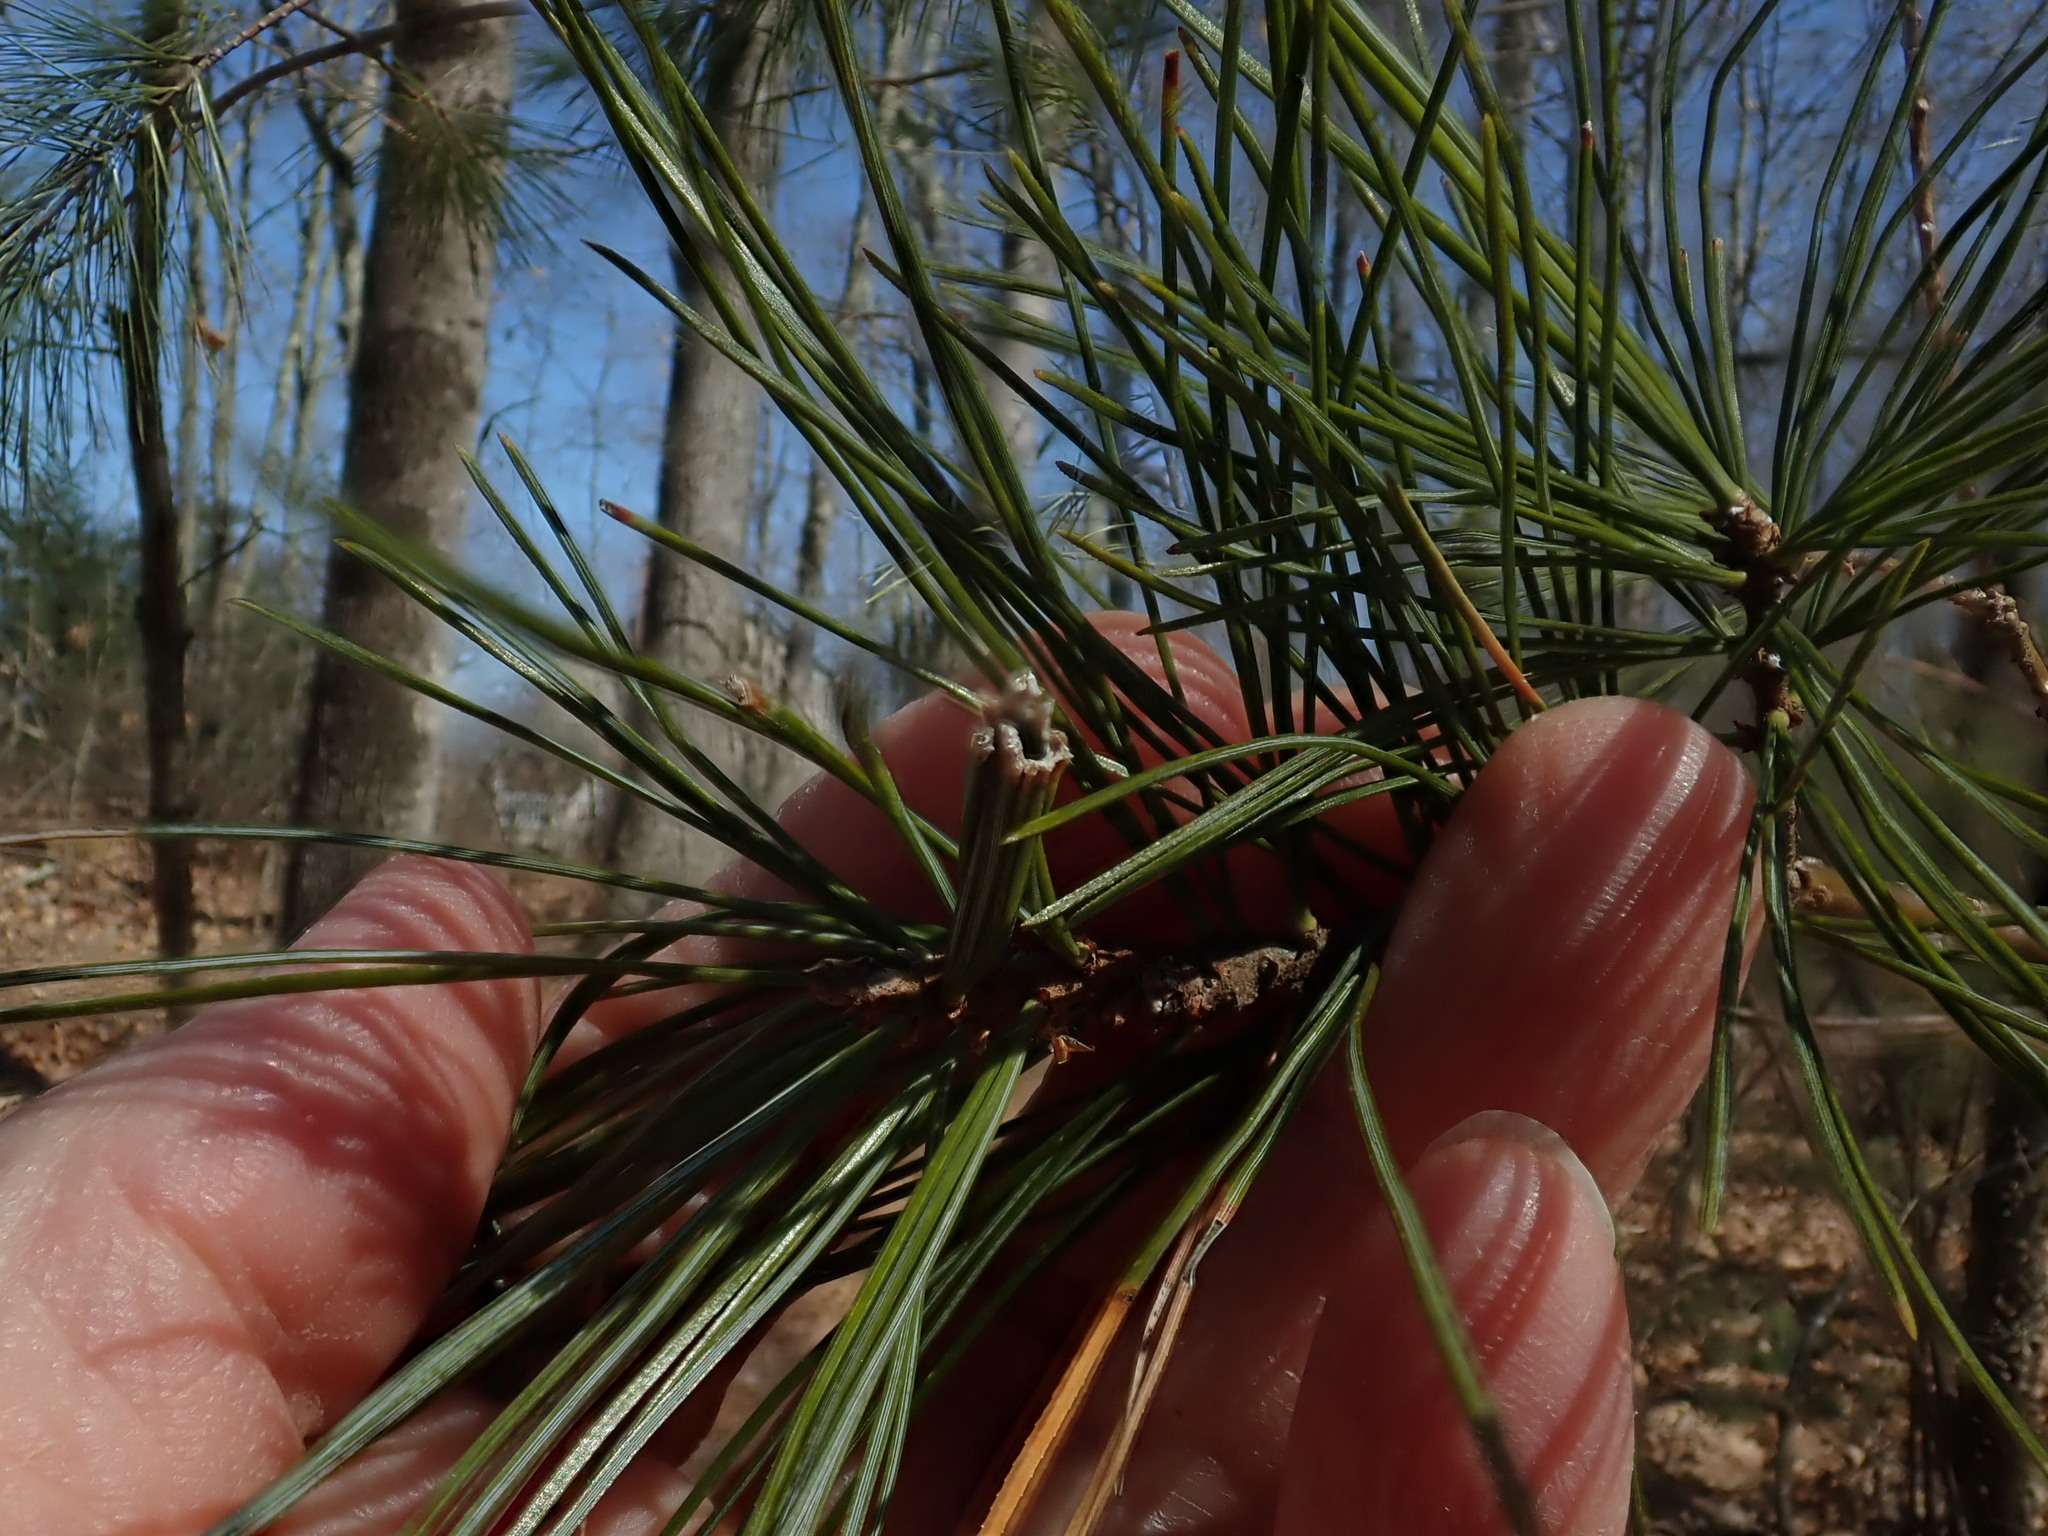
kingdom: Animalia
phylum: Arthropoda
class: Insecta
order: Lepidoptera
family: Tortricidae
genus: Argyrotaenia
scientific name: Argyrotaenia pinatubana
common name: Pine tube moth
